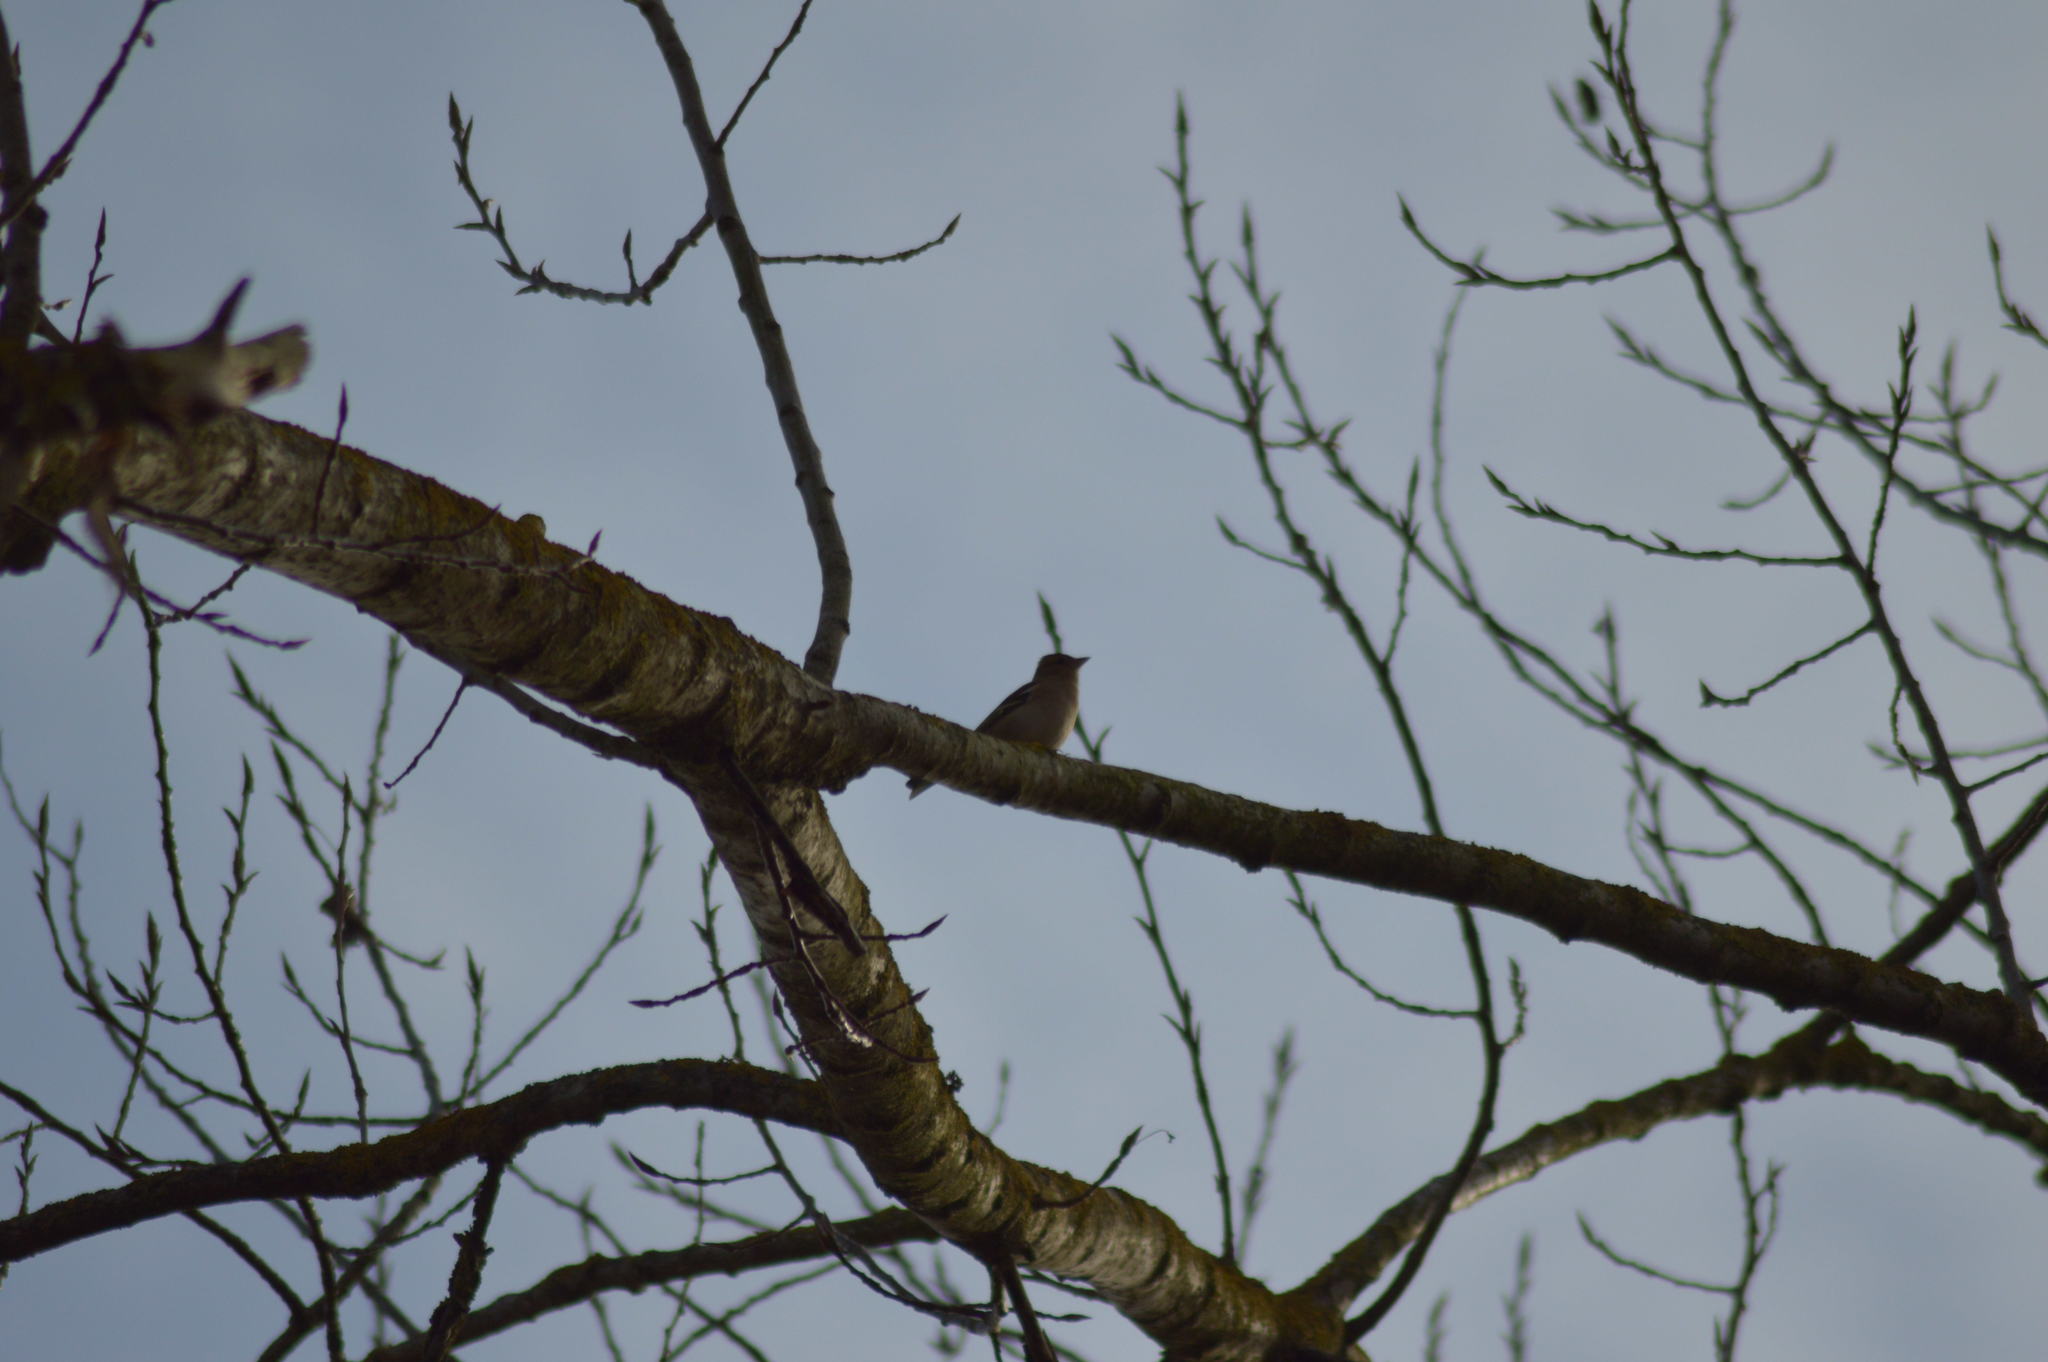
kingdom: Animalia
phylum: Chordata
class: Aves
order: Passeriformes
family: Fringillidae
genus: Fringilla
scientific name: Fringilla coelebs
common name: Common chaffinch
